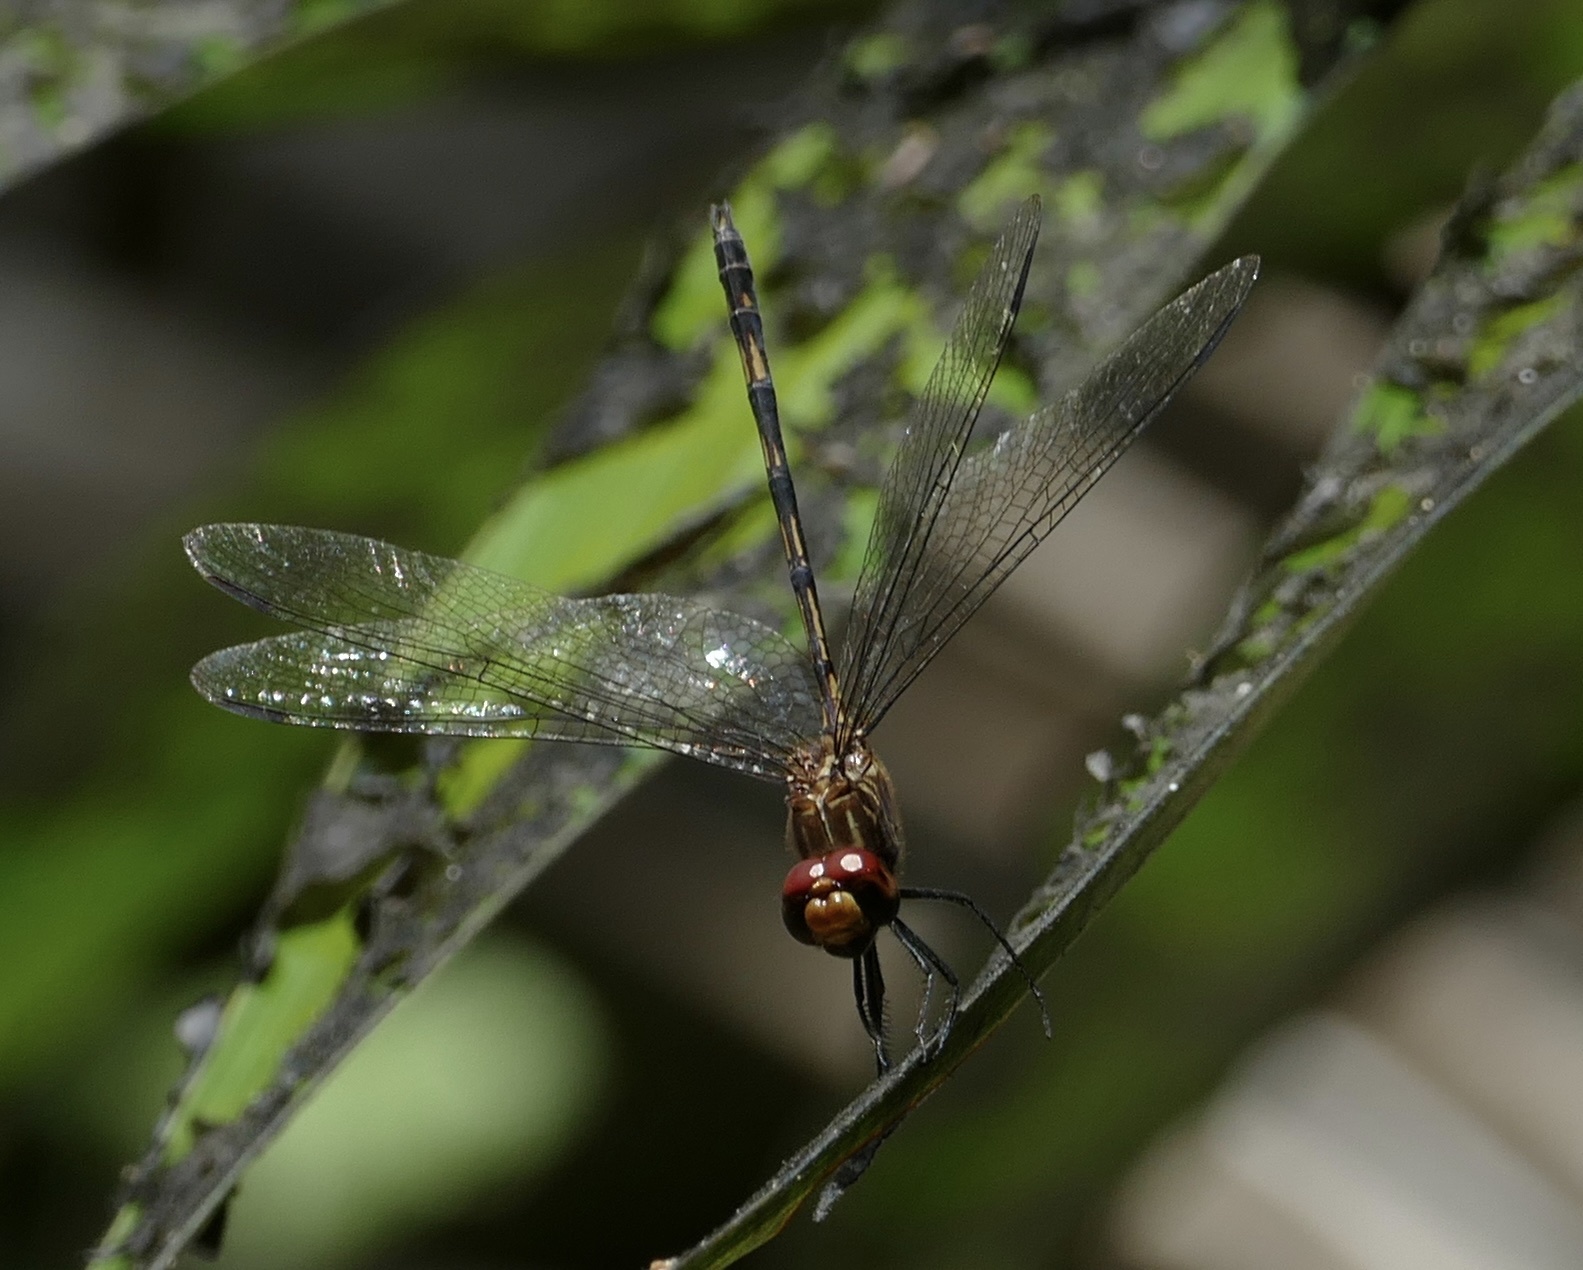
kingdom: Animalia
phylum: Arthropoda
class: Insecta
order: Odonata
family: Libellulidae
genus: Dythemis
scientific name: Dythemis sterilis
